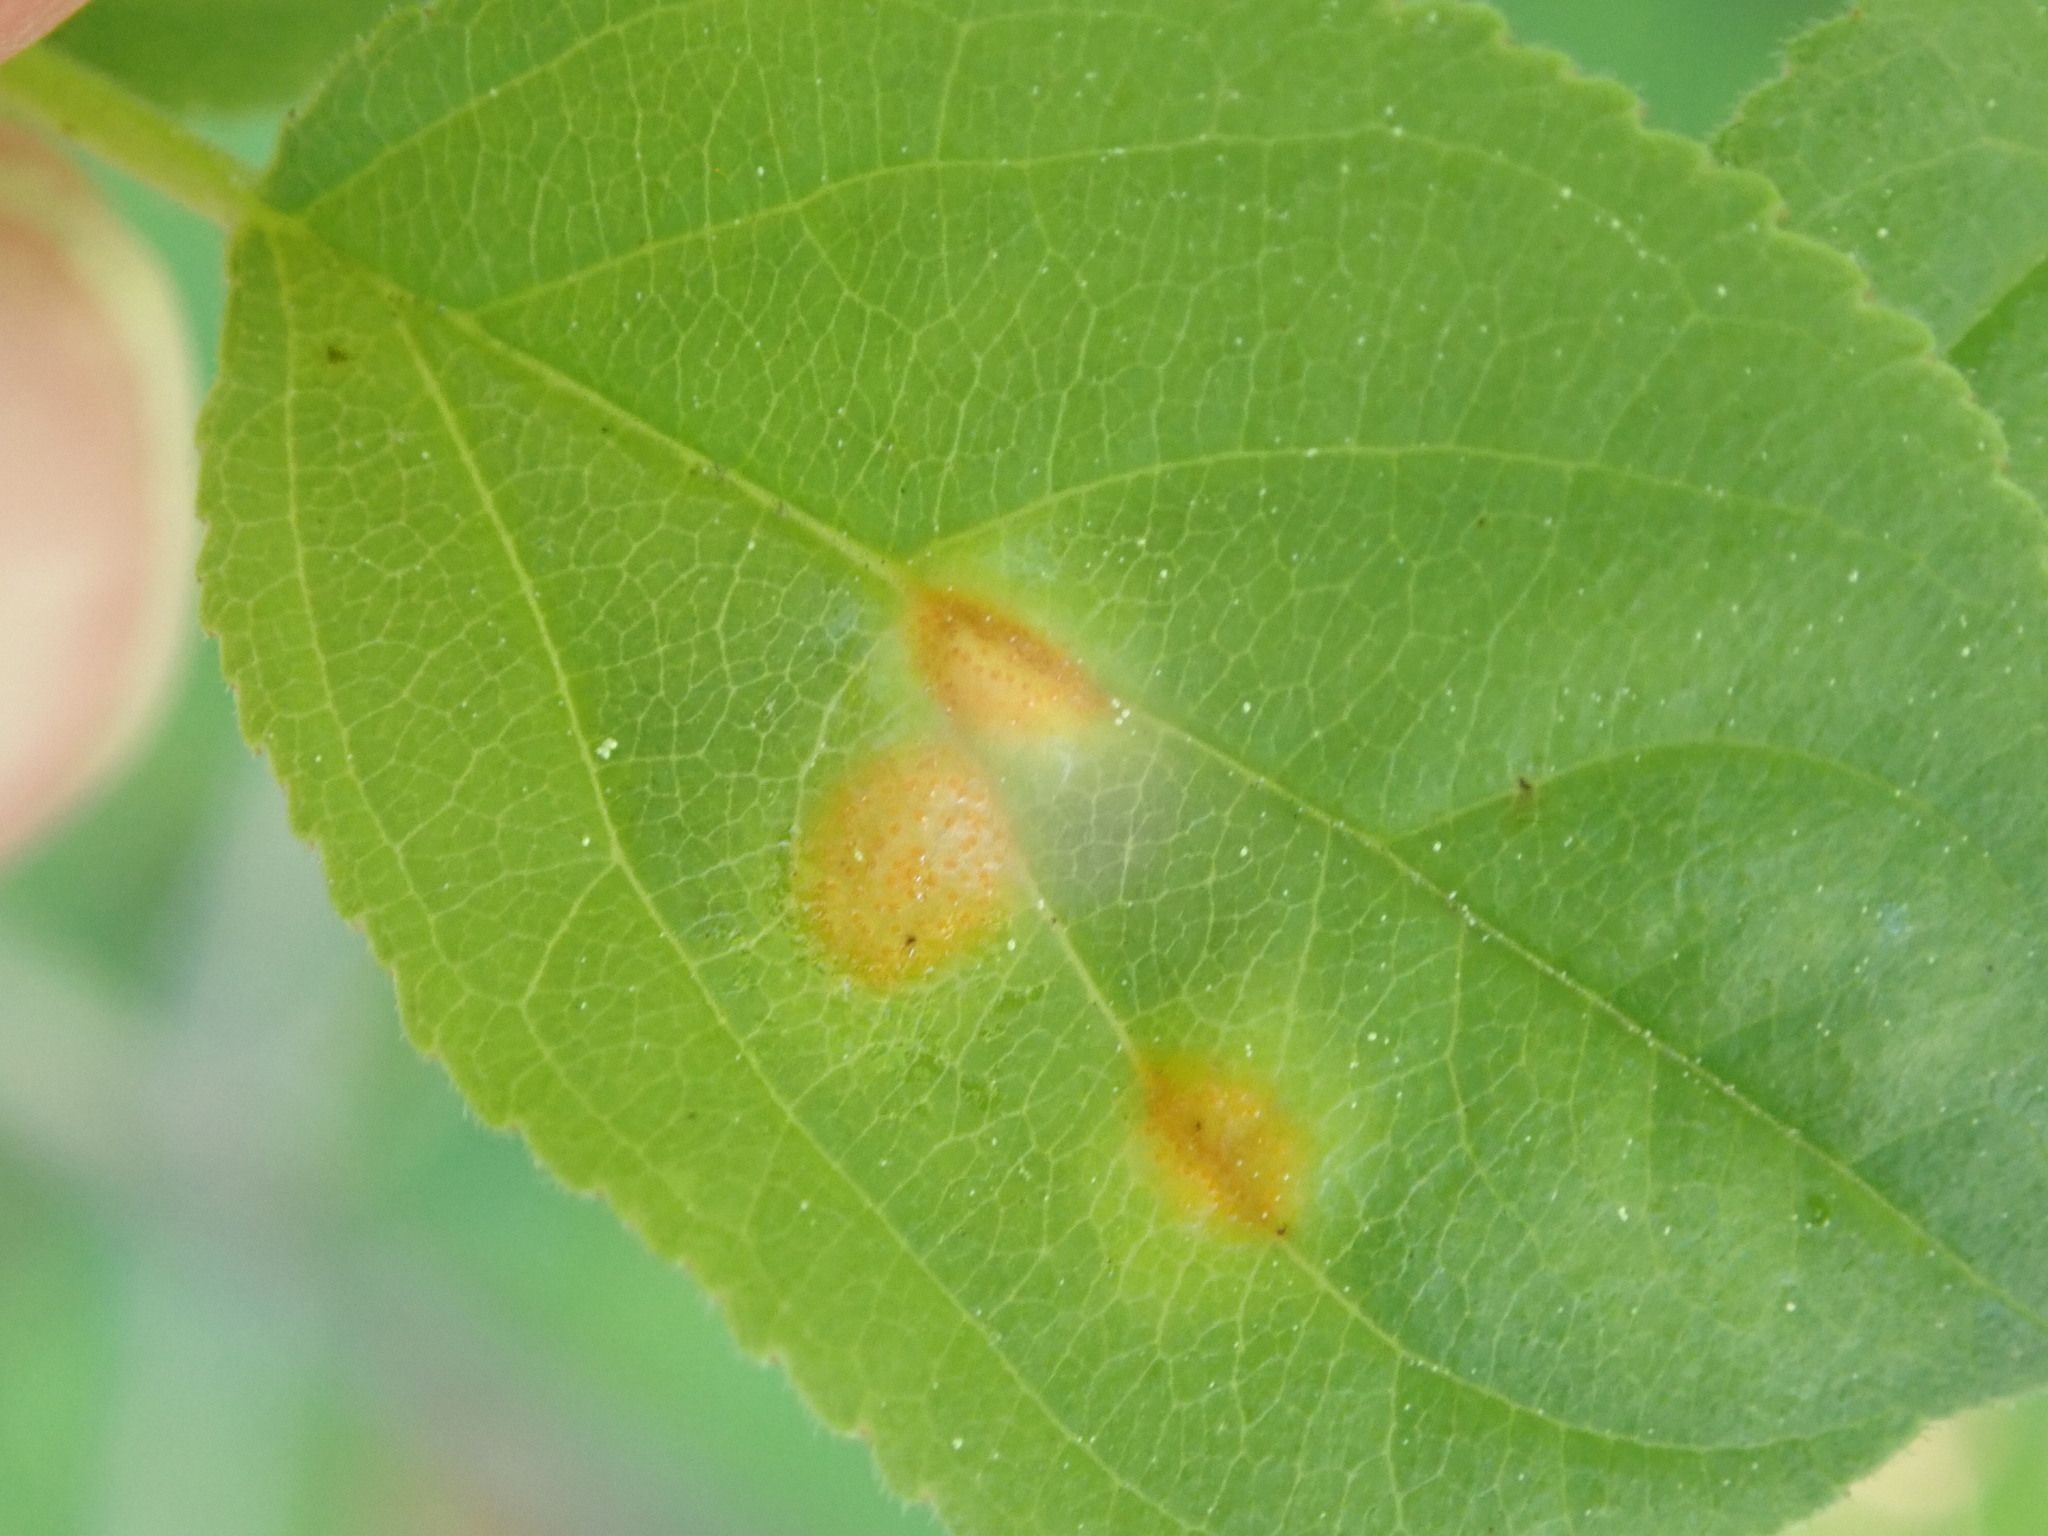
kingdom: Fungi
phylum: Basidiomycota
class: Pucciniomycetes
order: Pucciniales
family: Pucciniaceae
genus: Puccinia
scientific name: Puccinia coronata
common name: Crown rust
